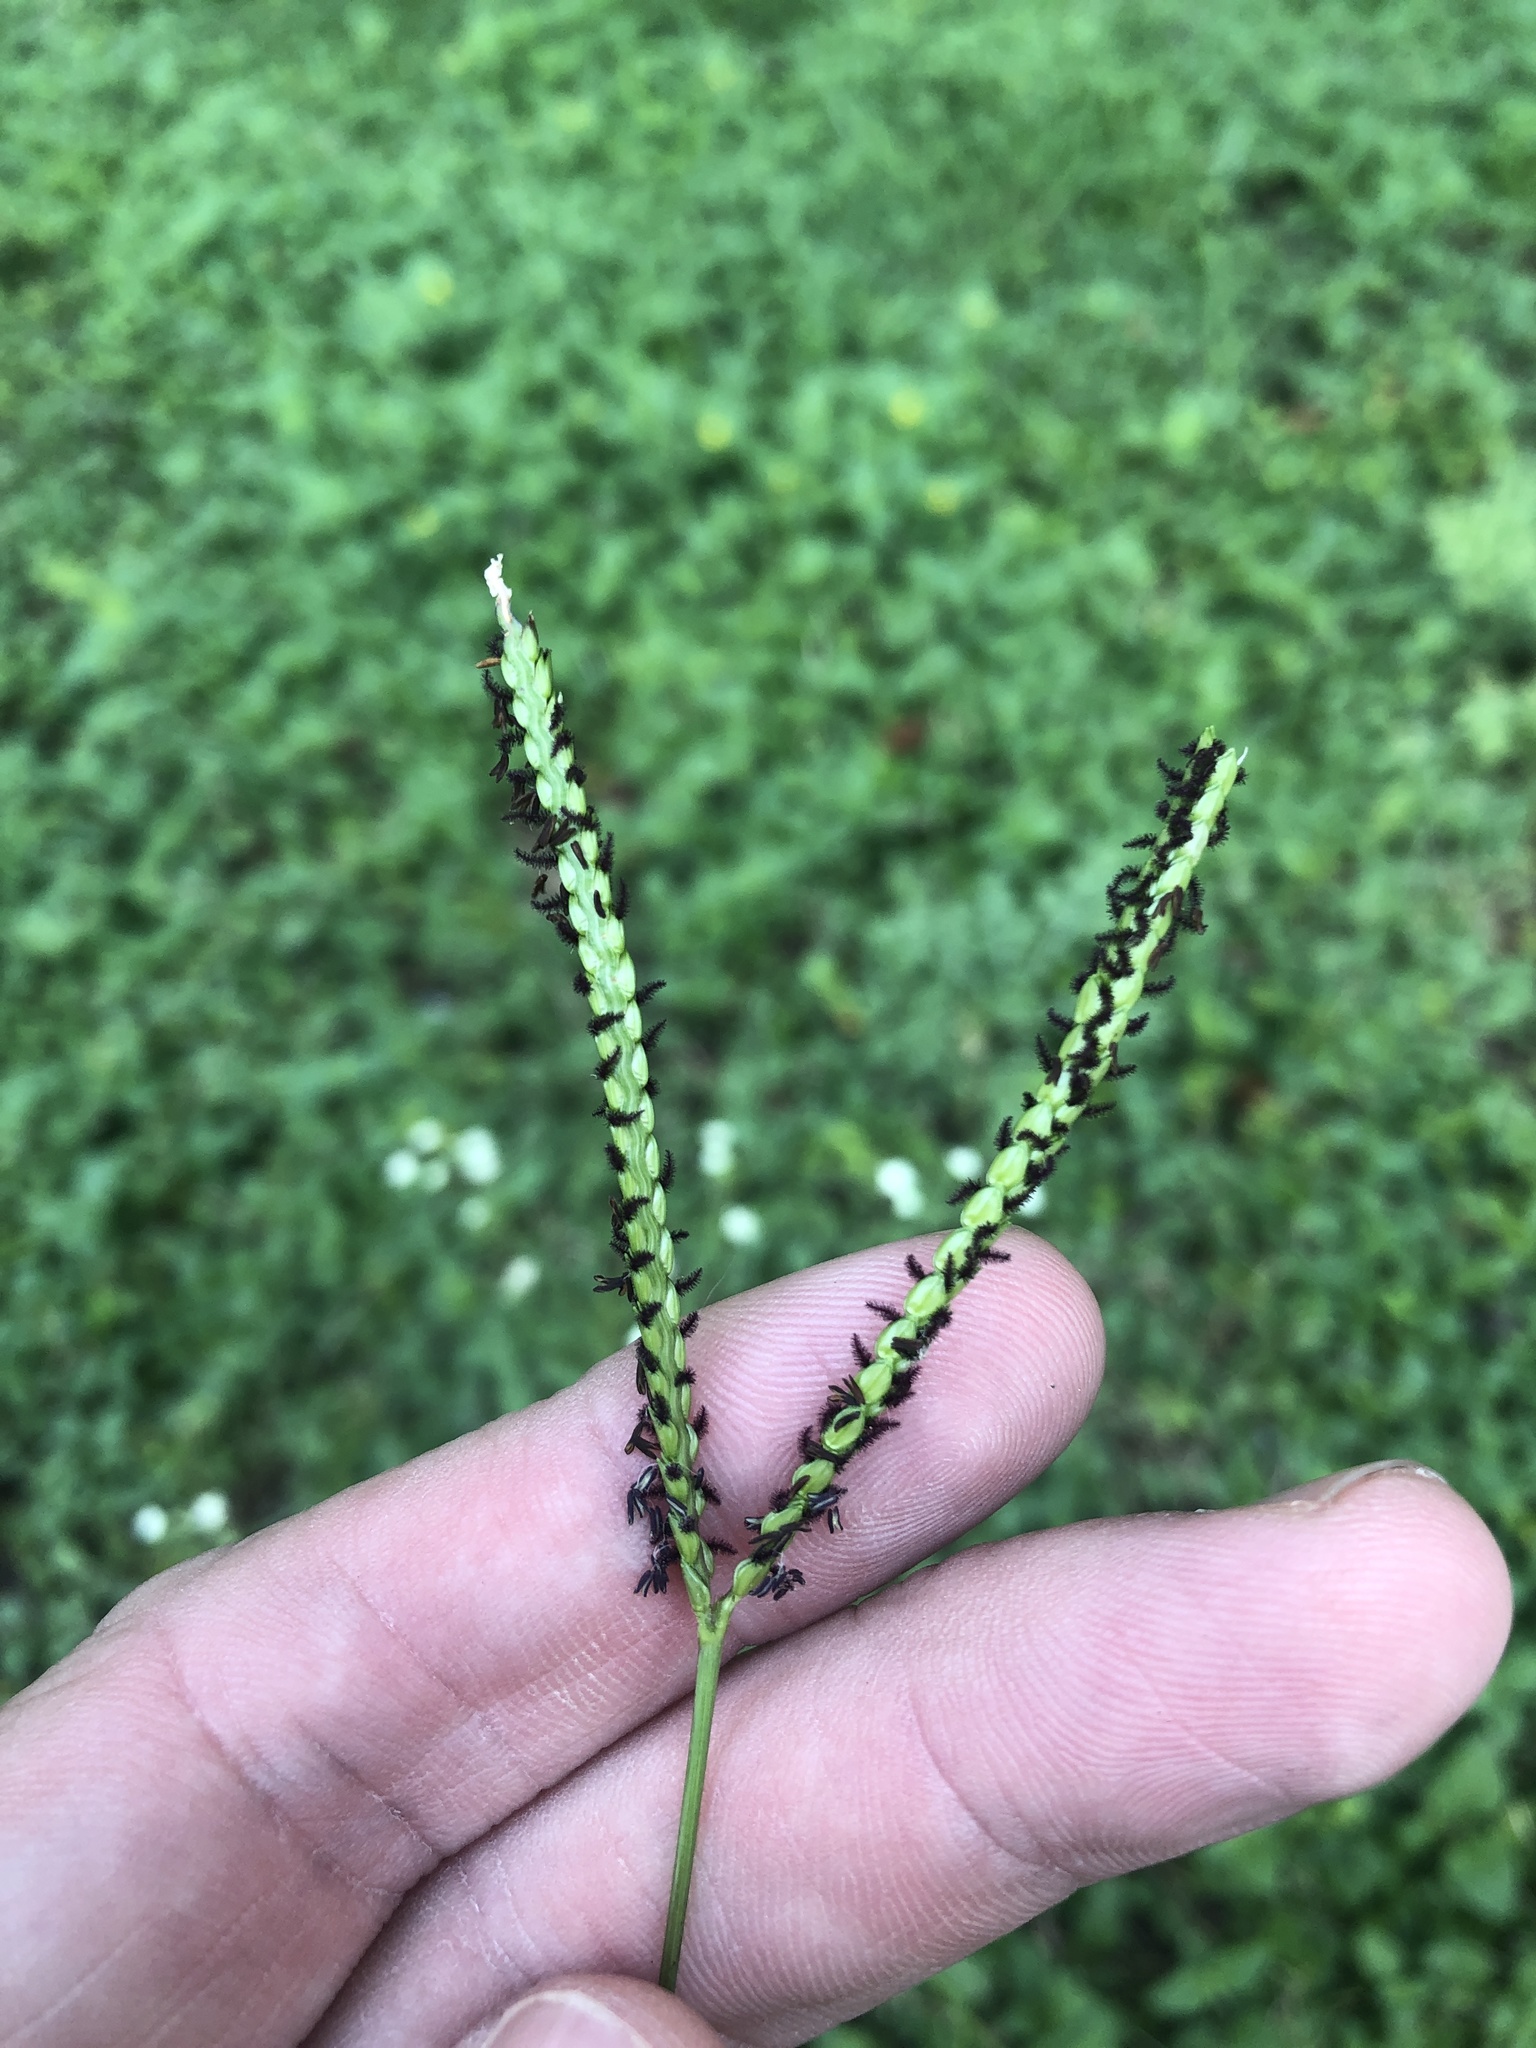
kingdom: Plantae
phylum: Tracheophyta
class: Liliopsida
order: Poales
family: Poaceae
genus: Paspalum
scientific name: Paspalum notatum
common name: Bahiagrass
